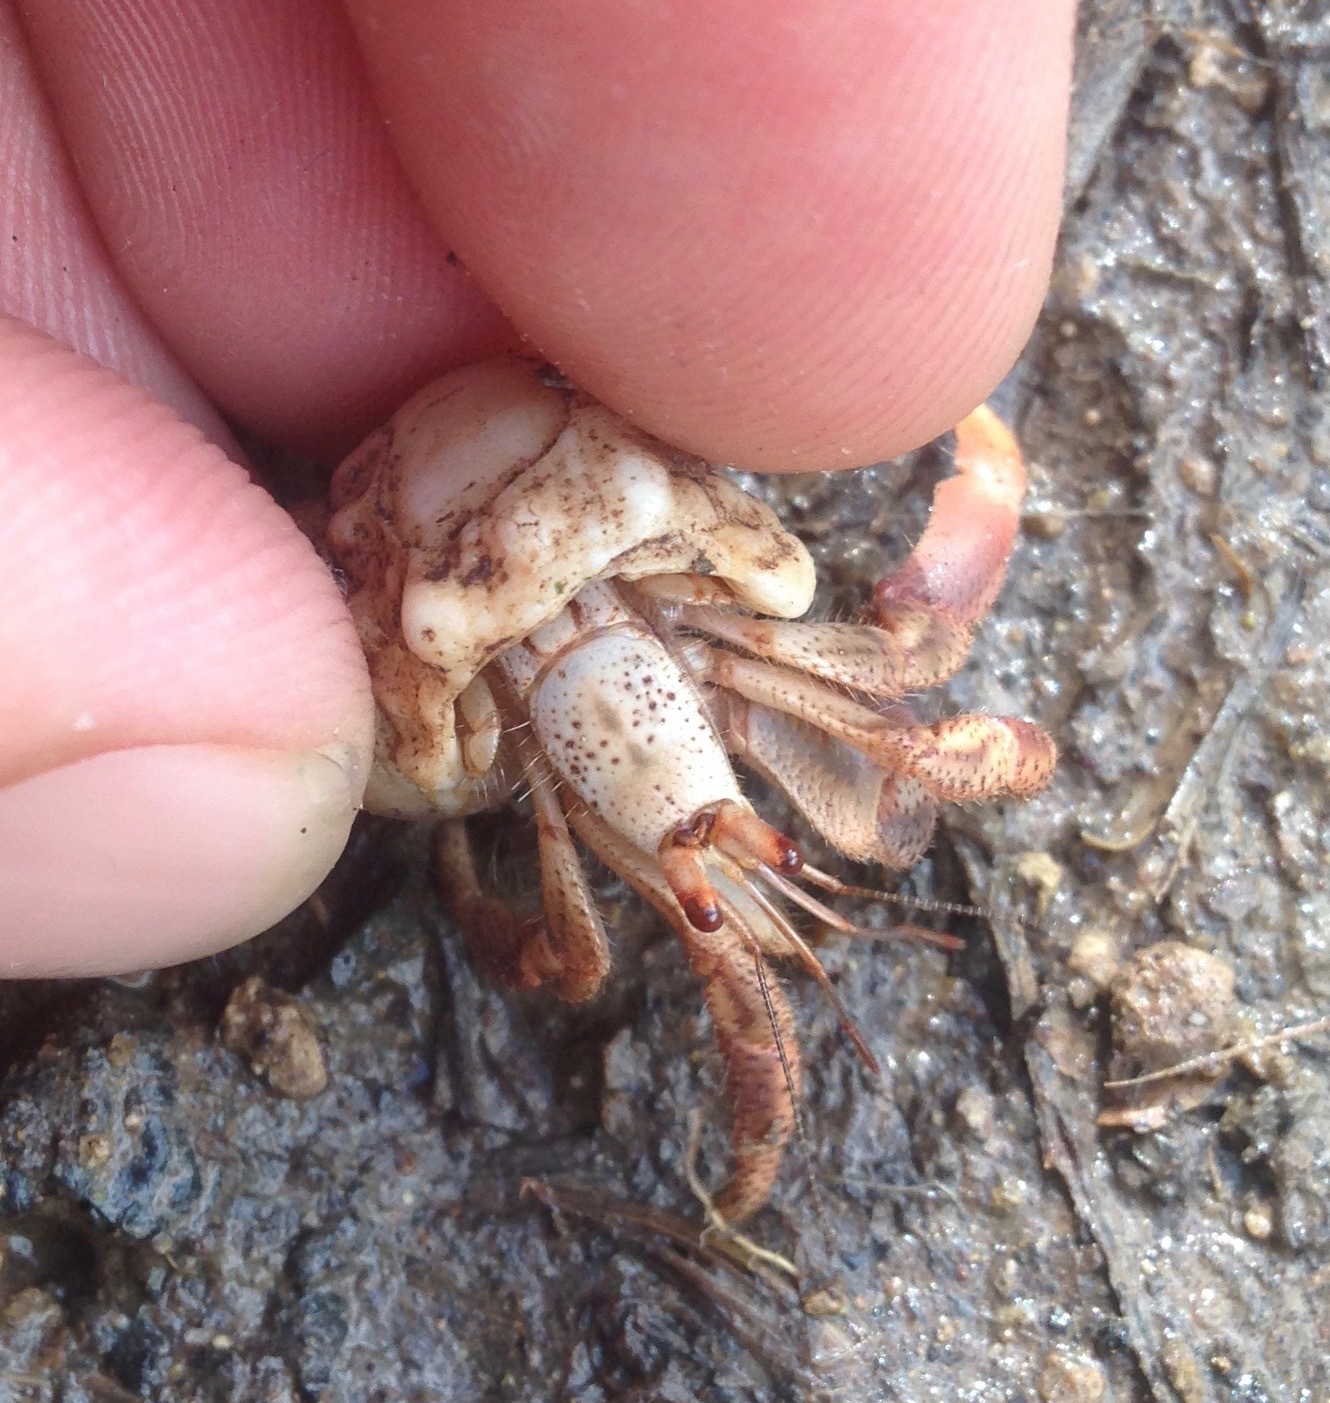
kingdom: Animalia
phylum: Arthropoda
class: Malacostraca
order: Decapoda
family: Coenobitidae
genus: Coenobita
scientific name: Coenobita clypeatus
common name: Caribbean hermit crab
